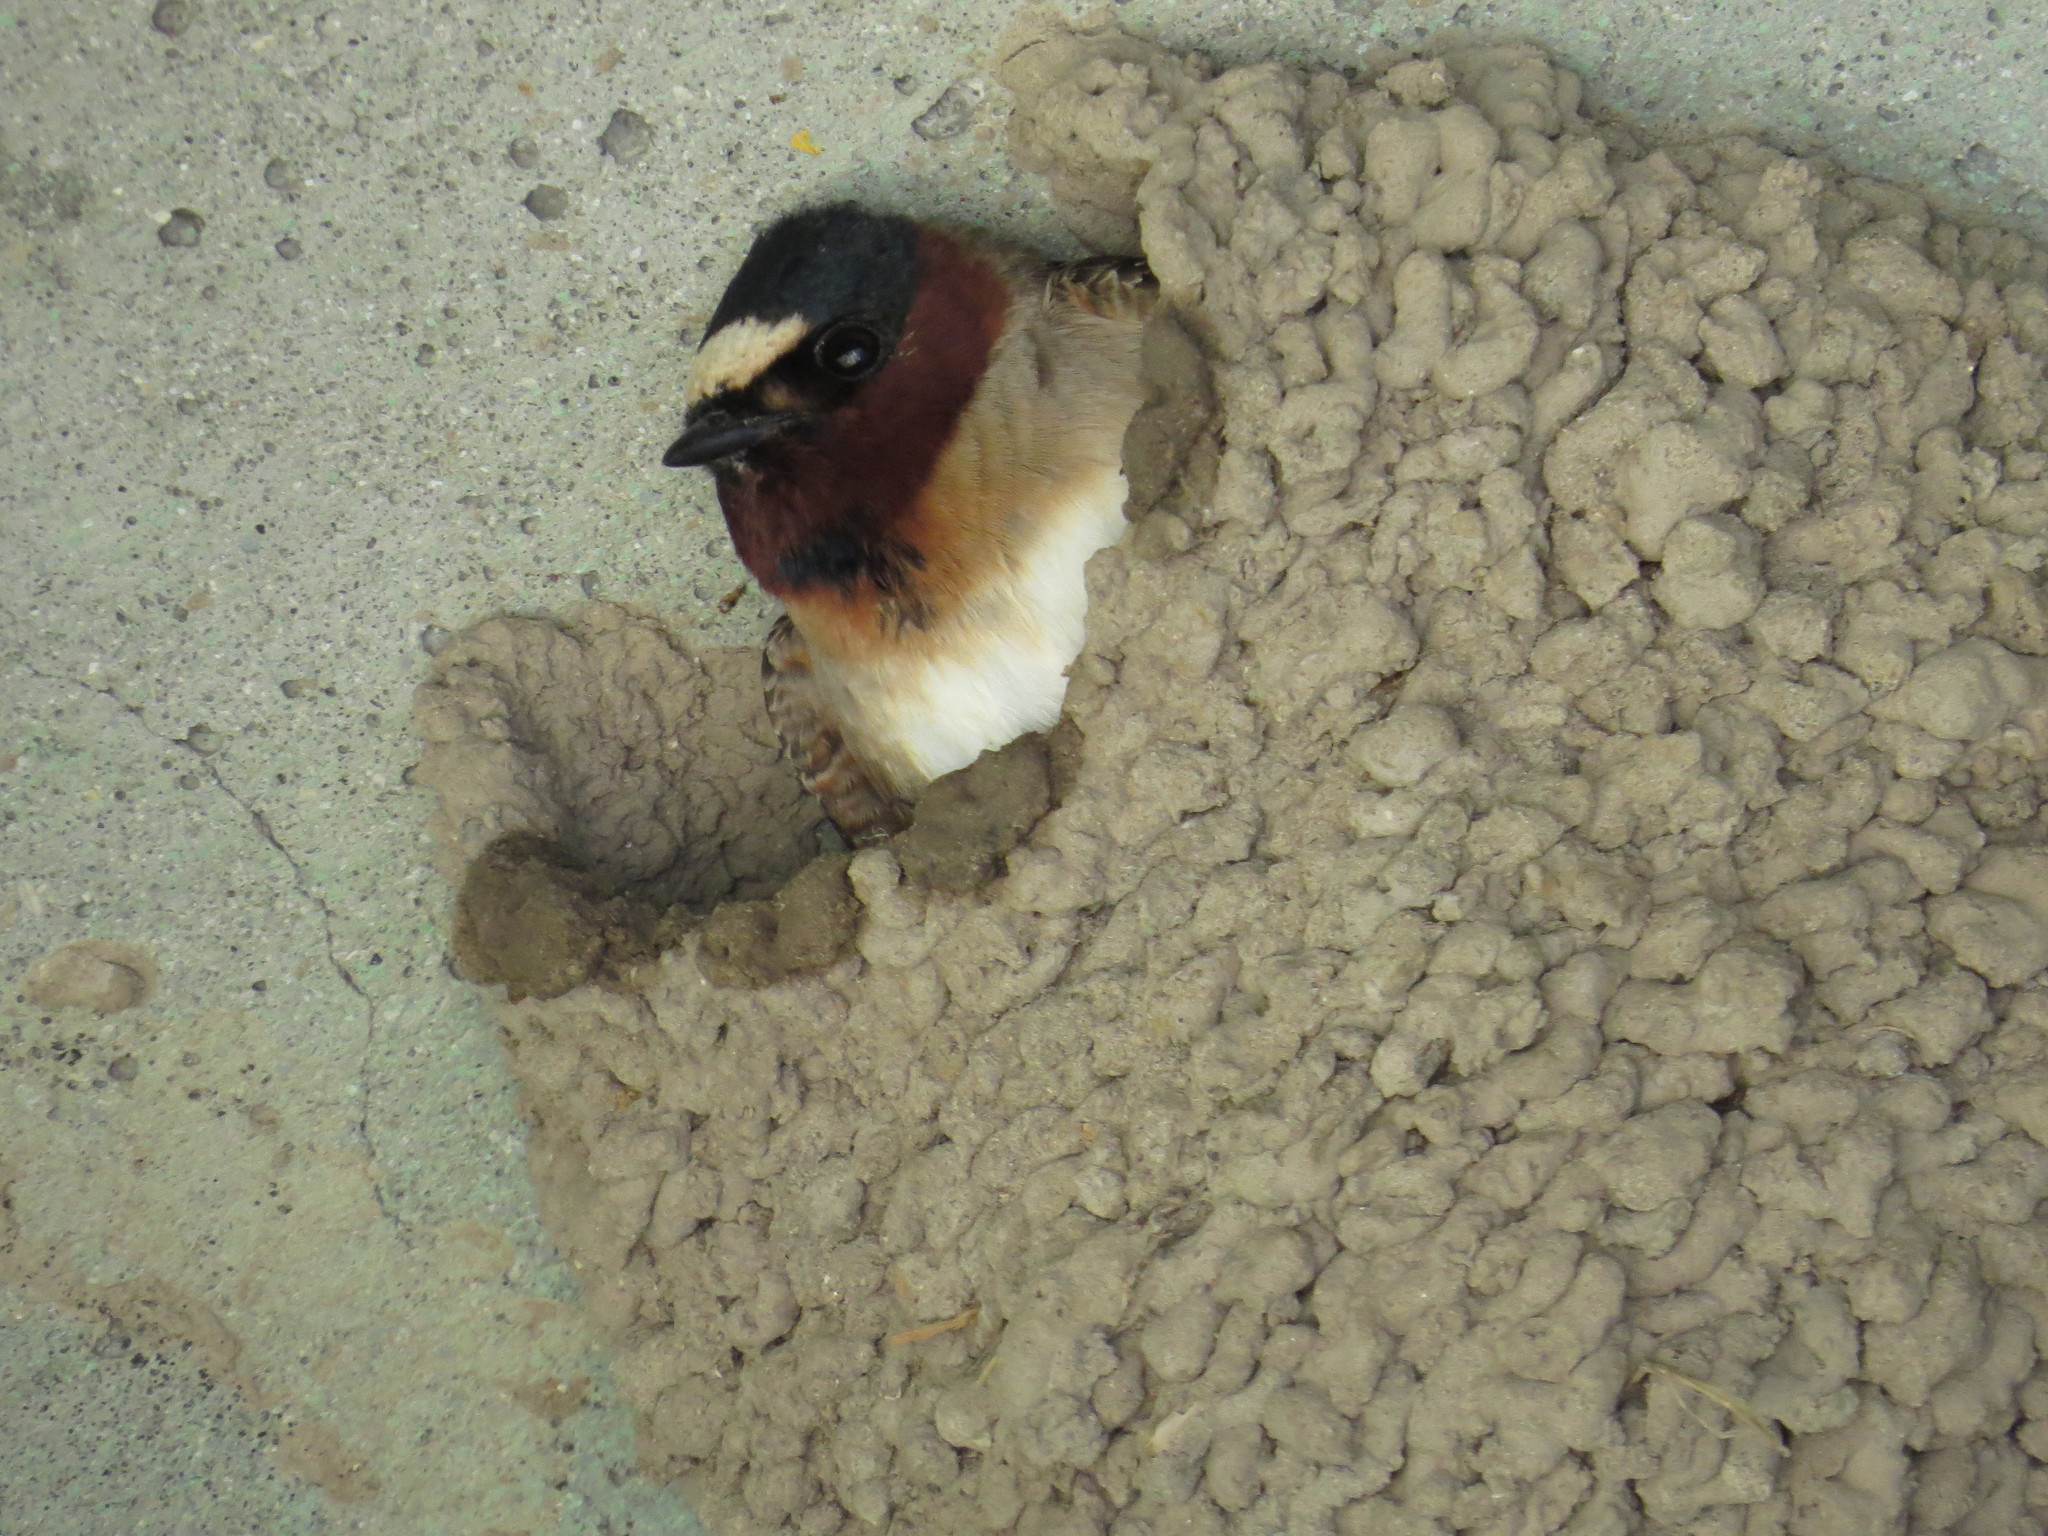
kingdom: Animalia
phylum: Chordata
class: Aves
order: Passeriformes
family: Hirundinidae
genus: Petrochelidon
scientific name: Petrochelidon pyrrhonota
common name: American cliff swallow
